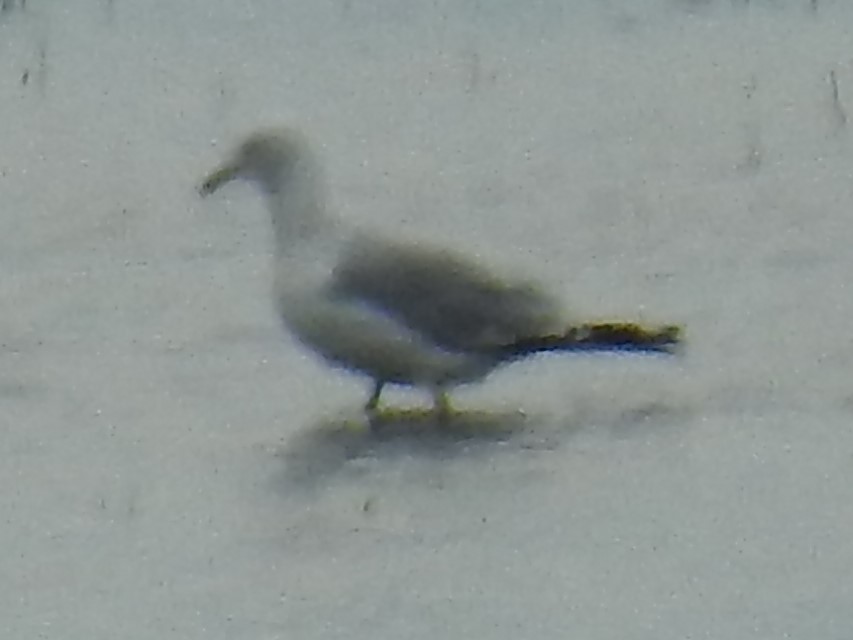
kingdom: Animalia
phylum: Chordata
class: Aves
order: Charadriiformes
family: Laridae
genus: Larus
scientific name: Larus delawarensis
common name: Ring-billed gull
